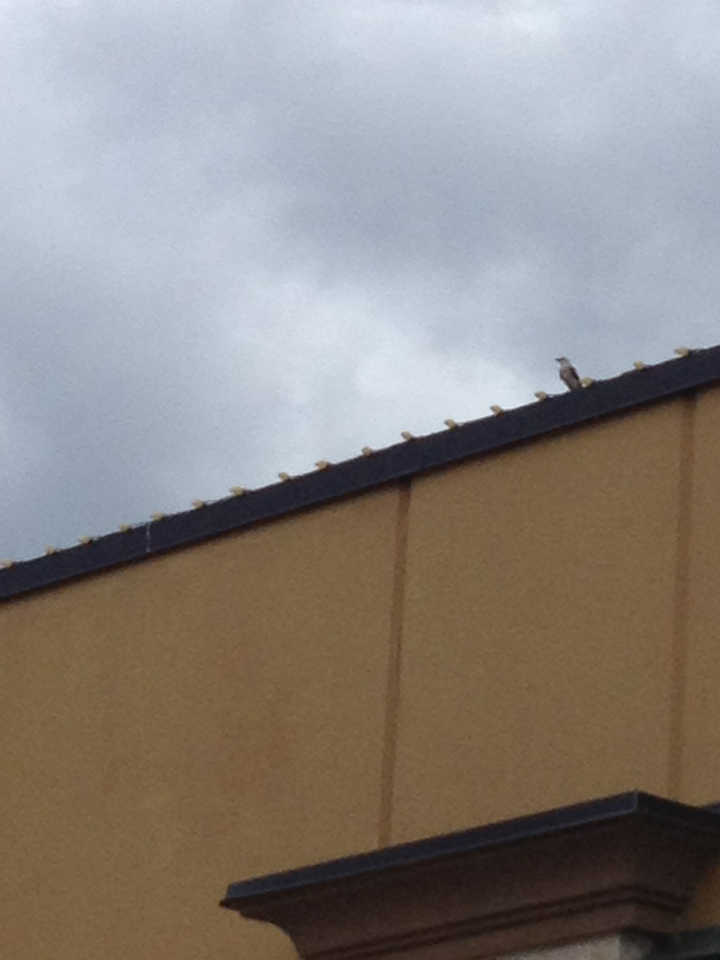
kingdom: Animalia
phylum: Chordata
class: Aves
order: Passeriformes
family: Tyrannidae
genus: Tyrannus
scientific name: Tyrannus forficatus
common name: Scissor-tailed flycatcher
